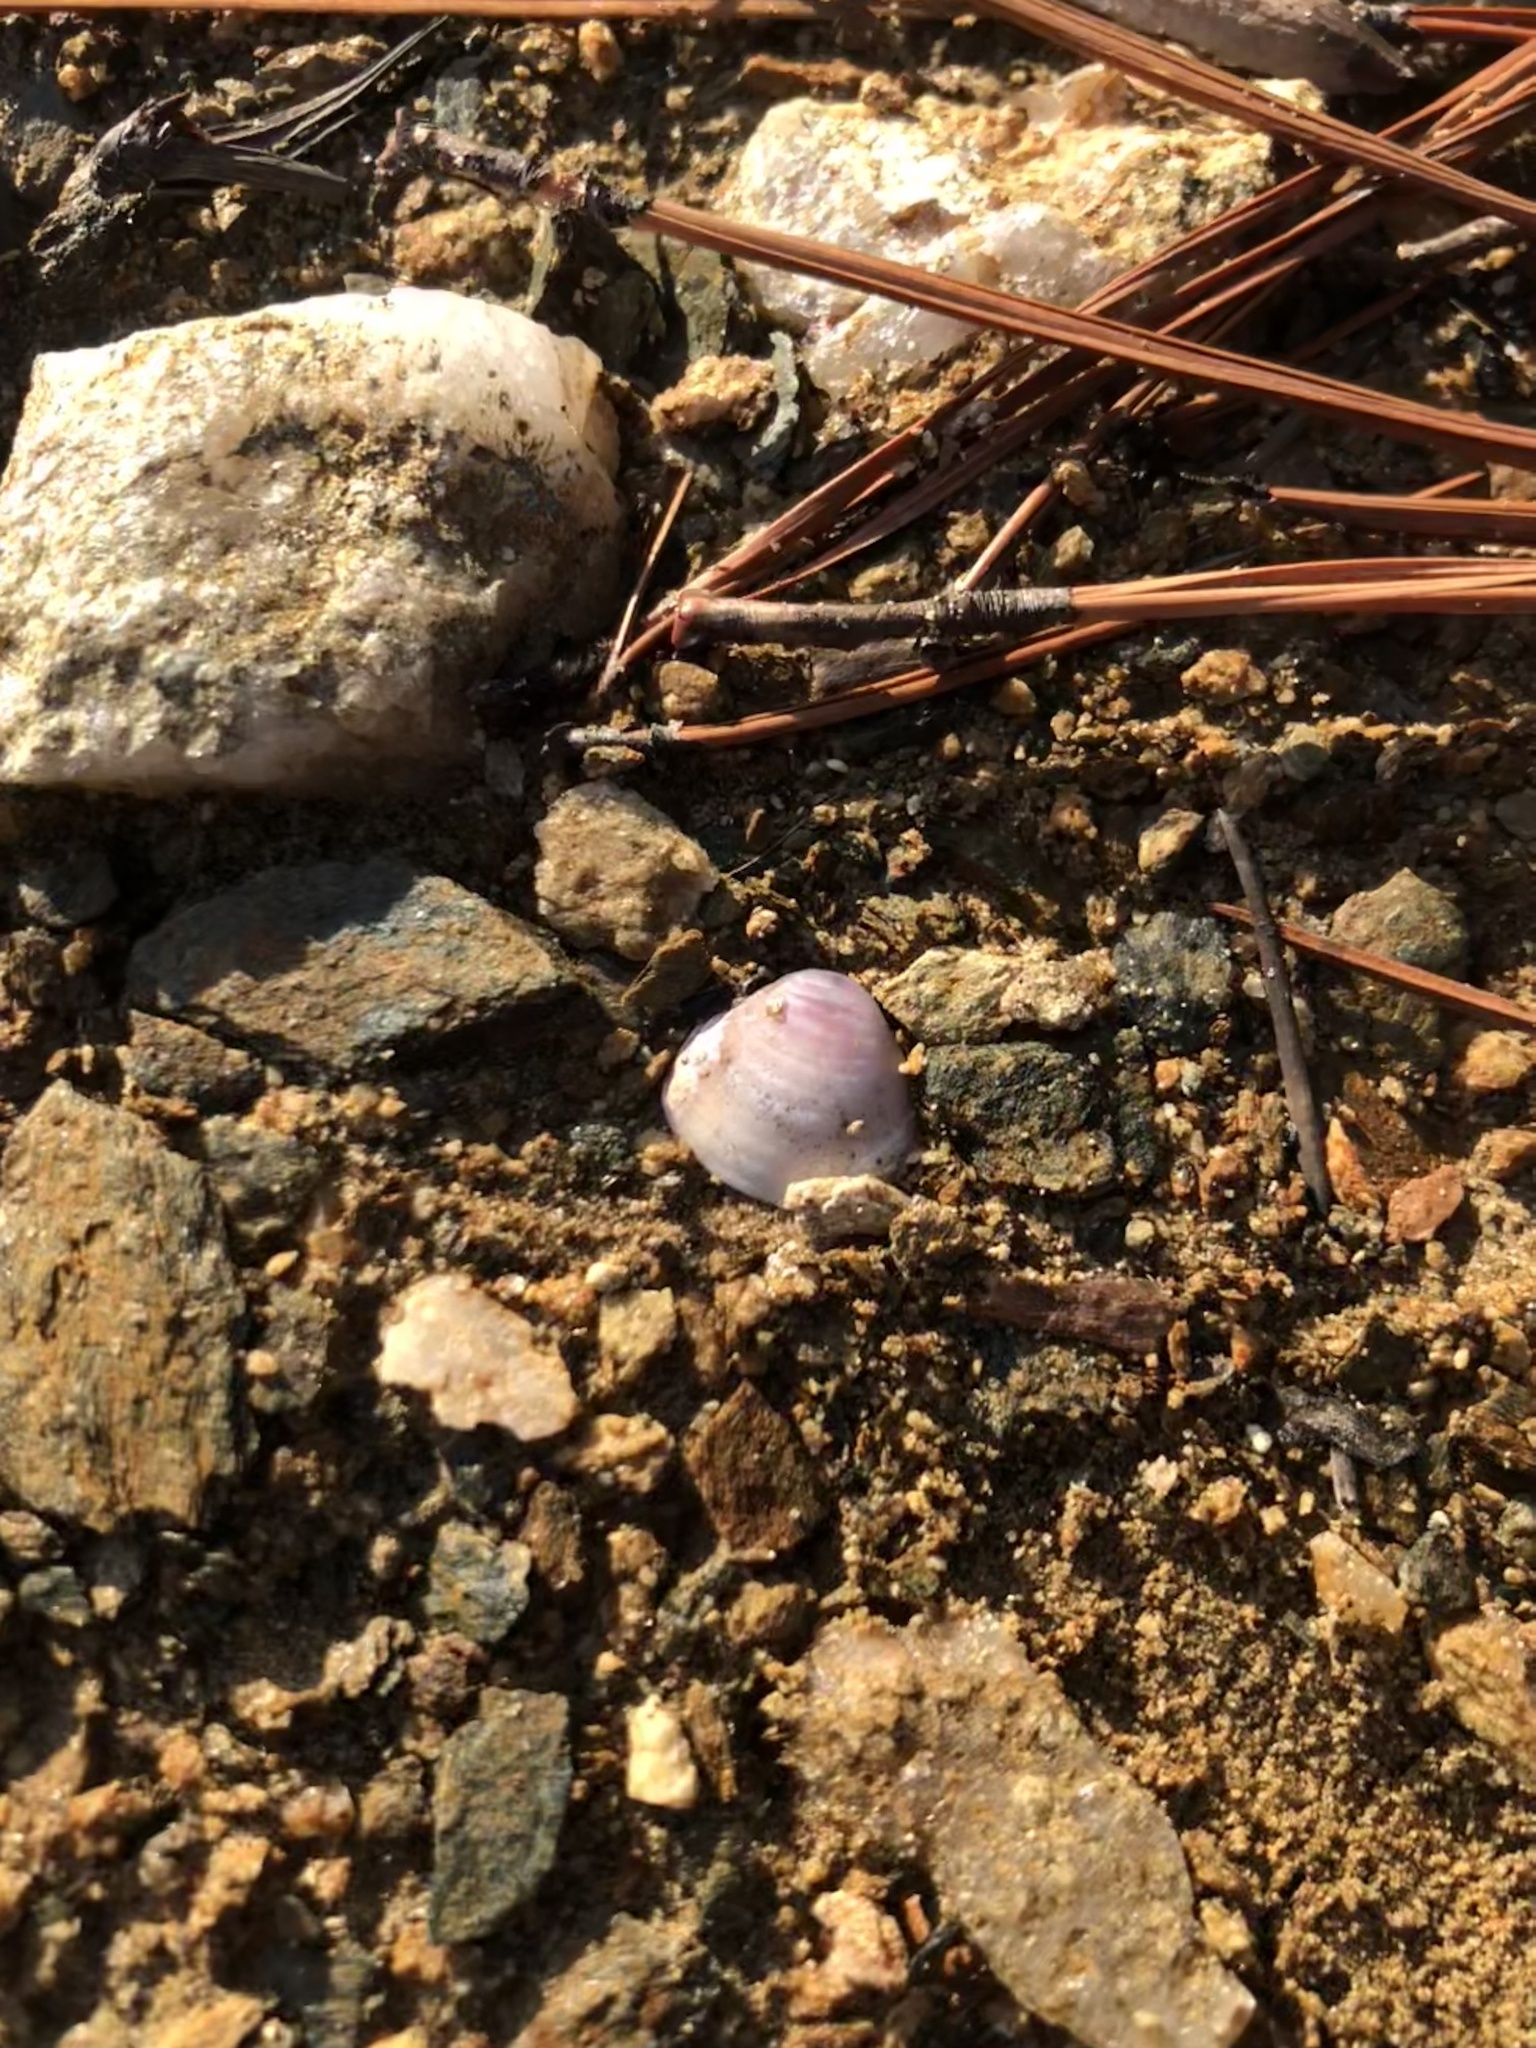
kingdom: Animalia
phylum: Mollusca
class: Bivalvia
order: Venerida
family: Cyrenidae
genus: Corbicula
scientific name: Corbicula fluminea
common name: Asian clam
